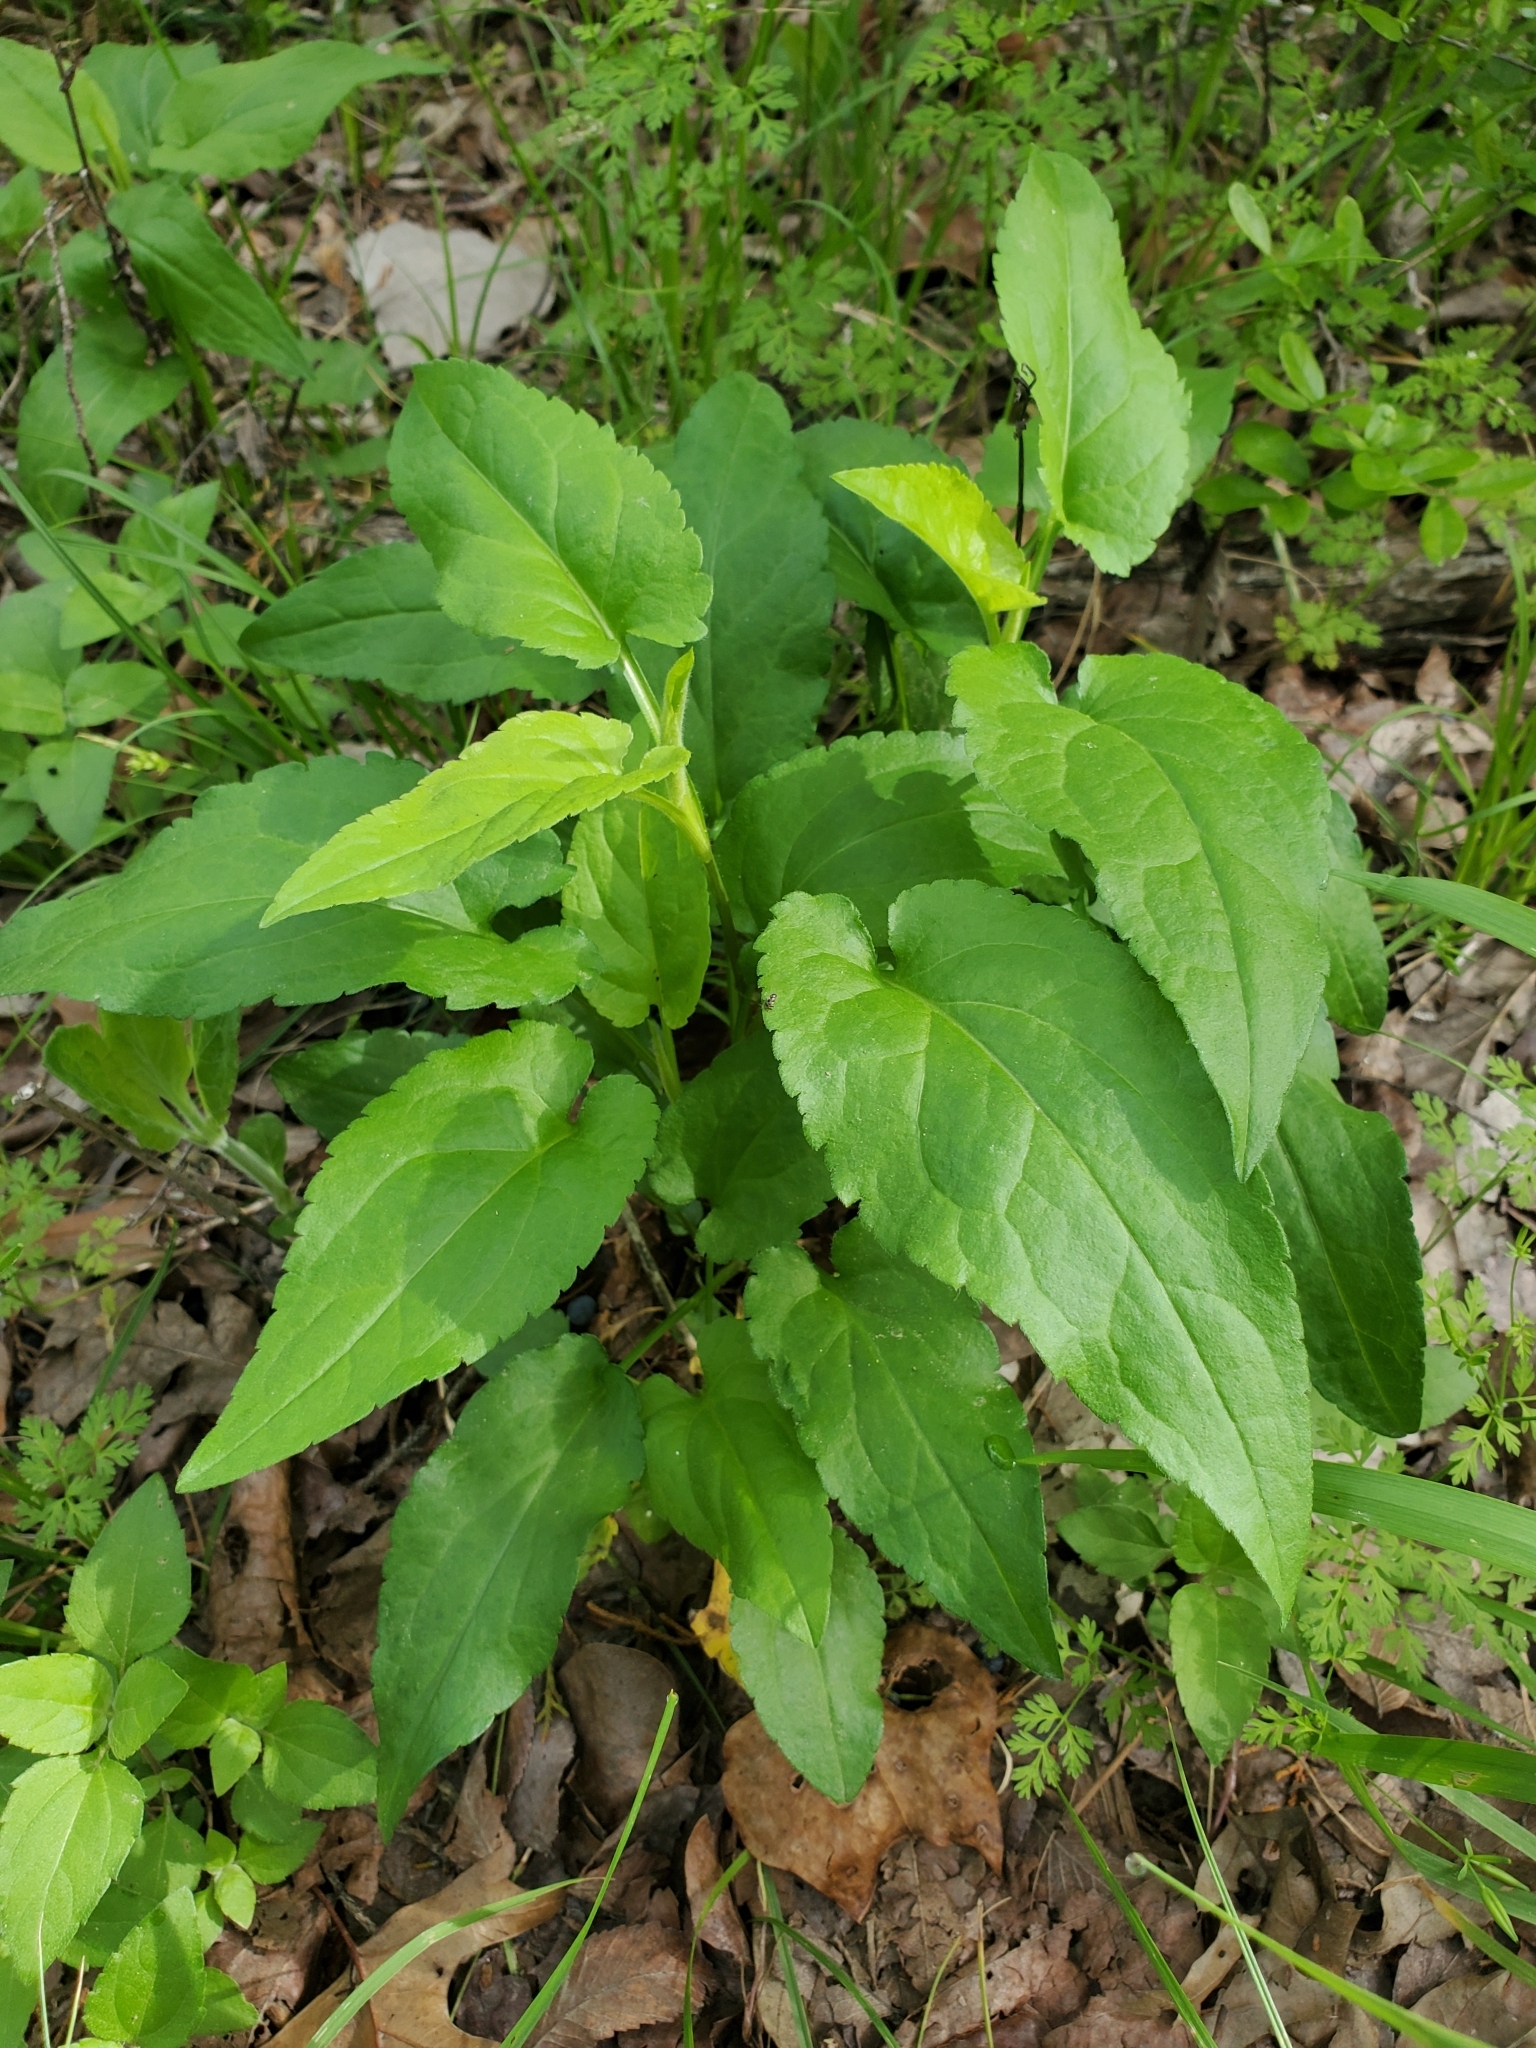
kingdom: Plantae
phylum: Tracheophyta
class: Magnoliopsida
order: Asterales
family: Asteraceae
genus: Symphyotrichum
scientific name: Symphyotrichum drummondii
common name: Drummond's aster
